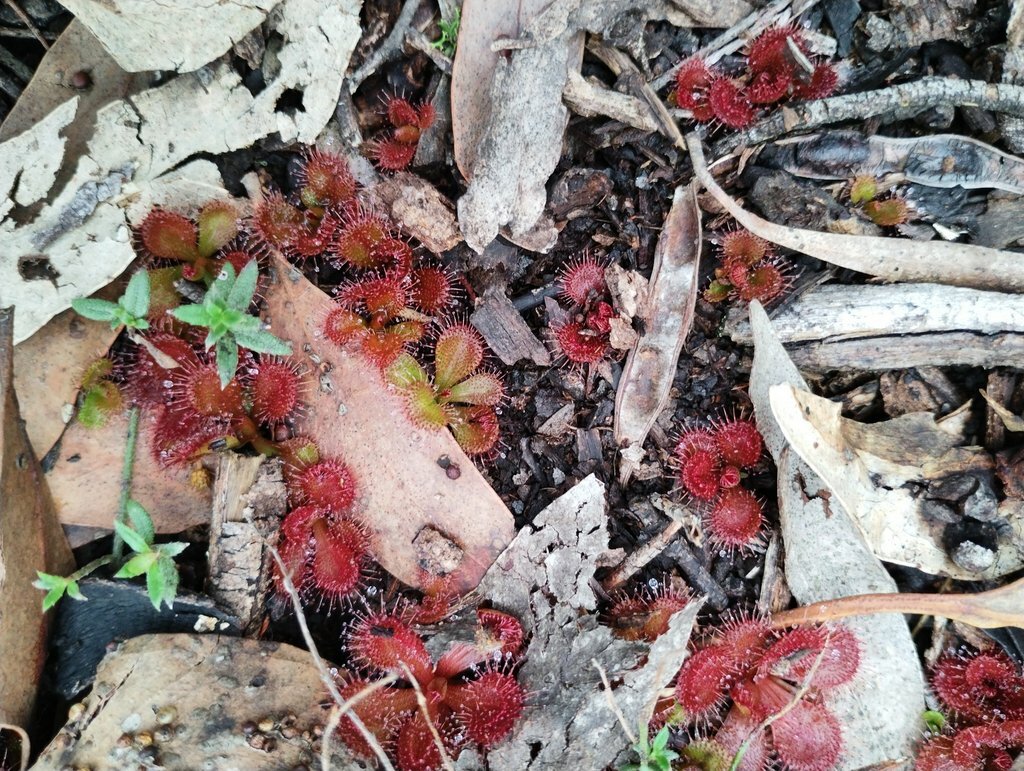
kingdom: Plantae
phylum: Tracheophyta
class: Magnoliopsida
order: Caryophyllales
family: Droseraceae
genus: Drosera
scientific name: Drosera aberrans
